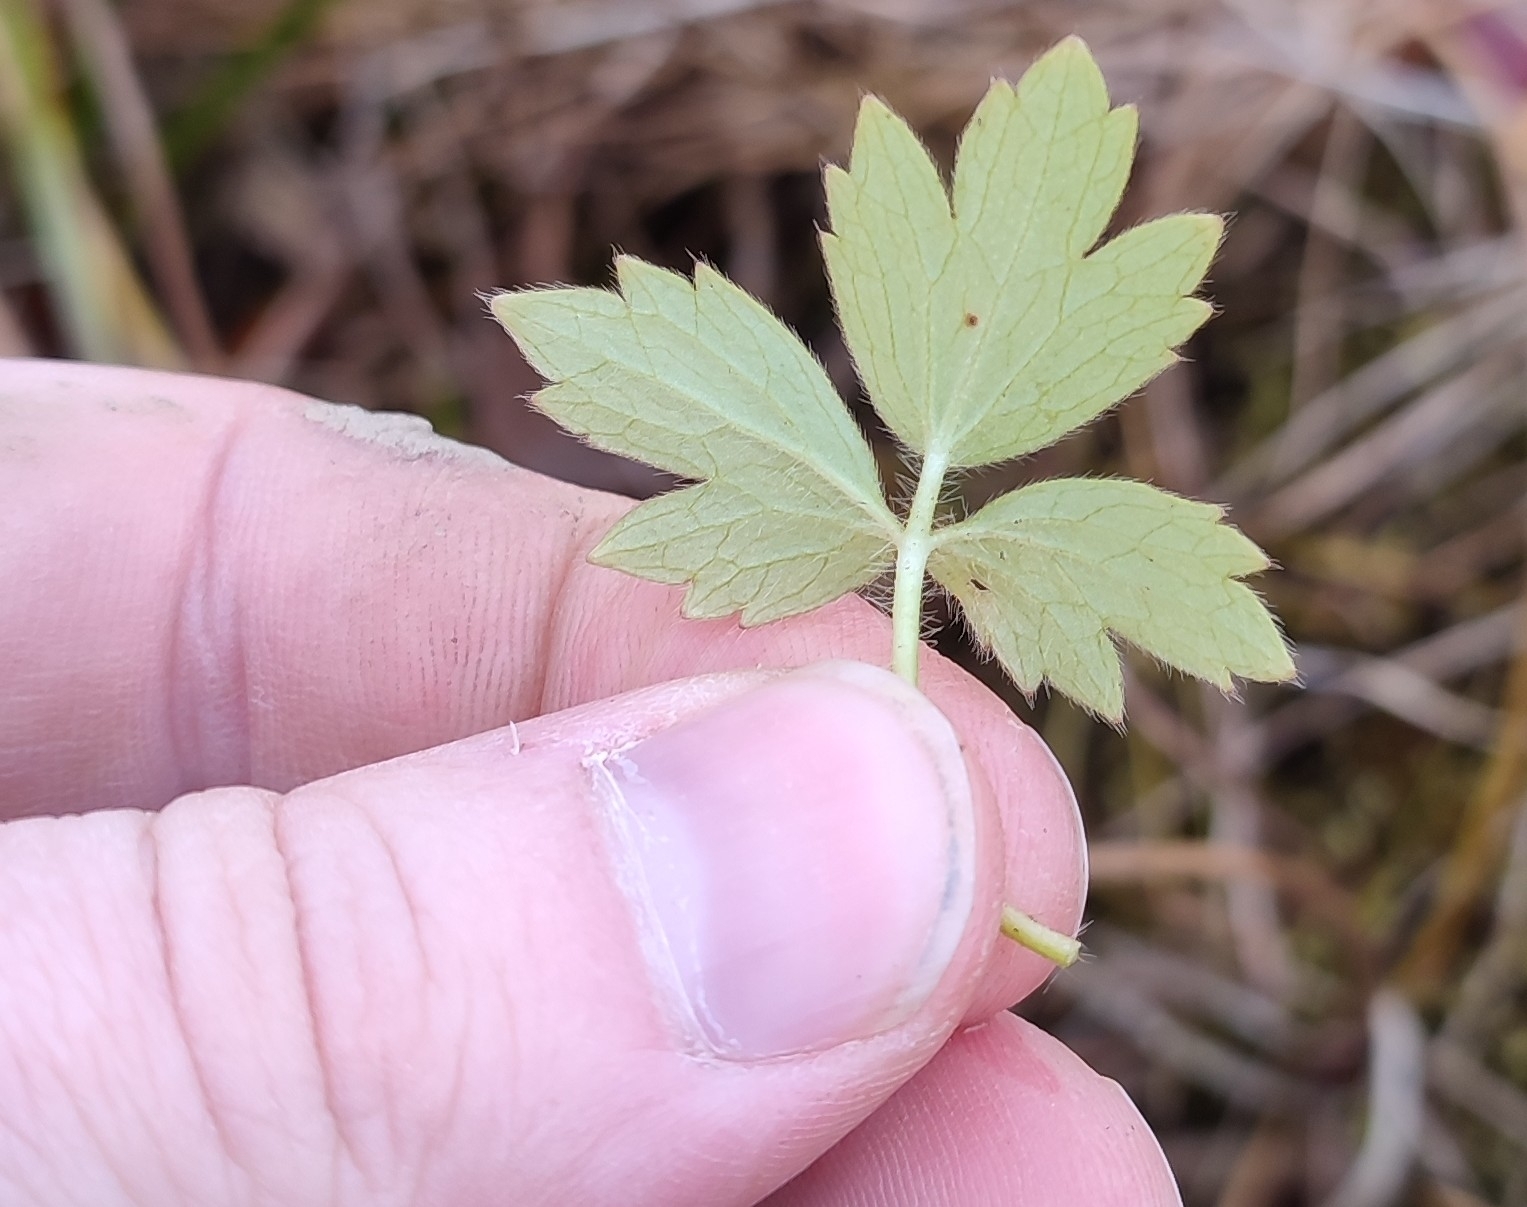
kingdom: Plantae
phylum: Tracheophyta
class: Magnoliopsida
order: Ranunculales
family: Ranunculaceae
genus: Ranunculus
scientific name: Ranunculus repens
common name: Creeping buttercup
